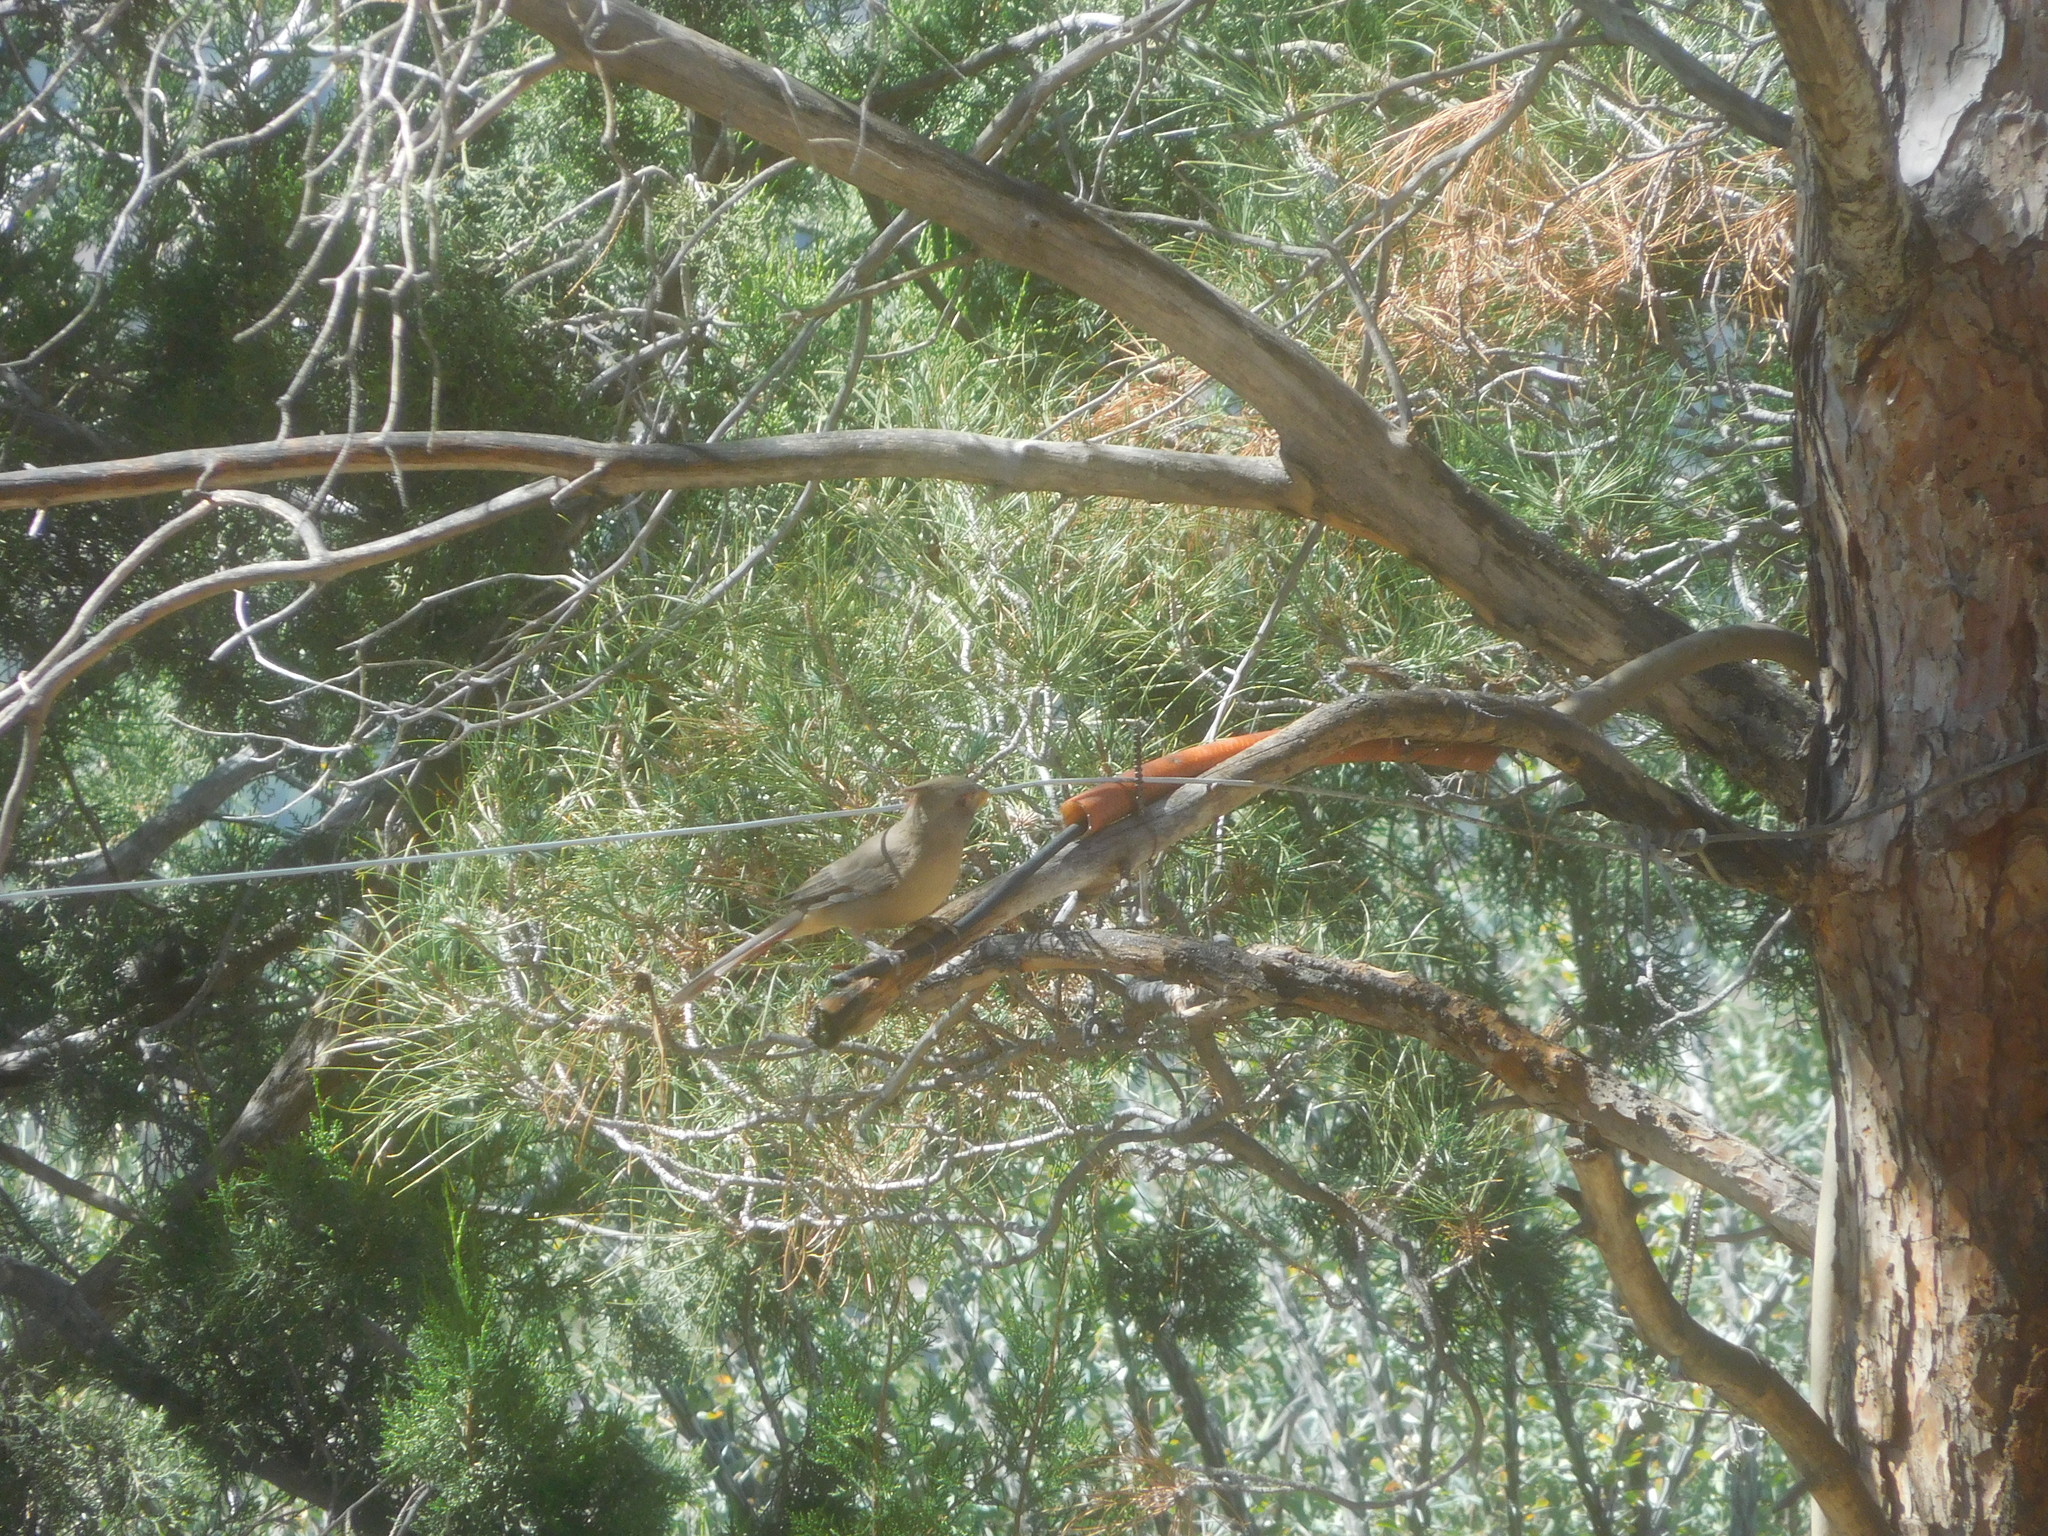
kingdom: Animalia
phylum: Chordata
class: Aves
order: Passeriformes
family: Cardinalidae
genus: Cardinalis
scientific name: Cardinalis cardinalis
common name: Northern cardinal
